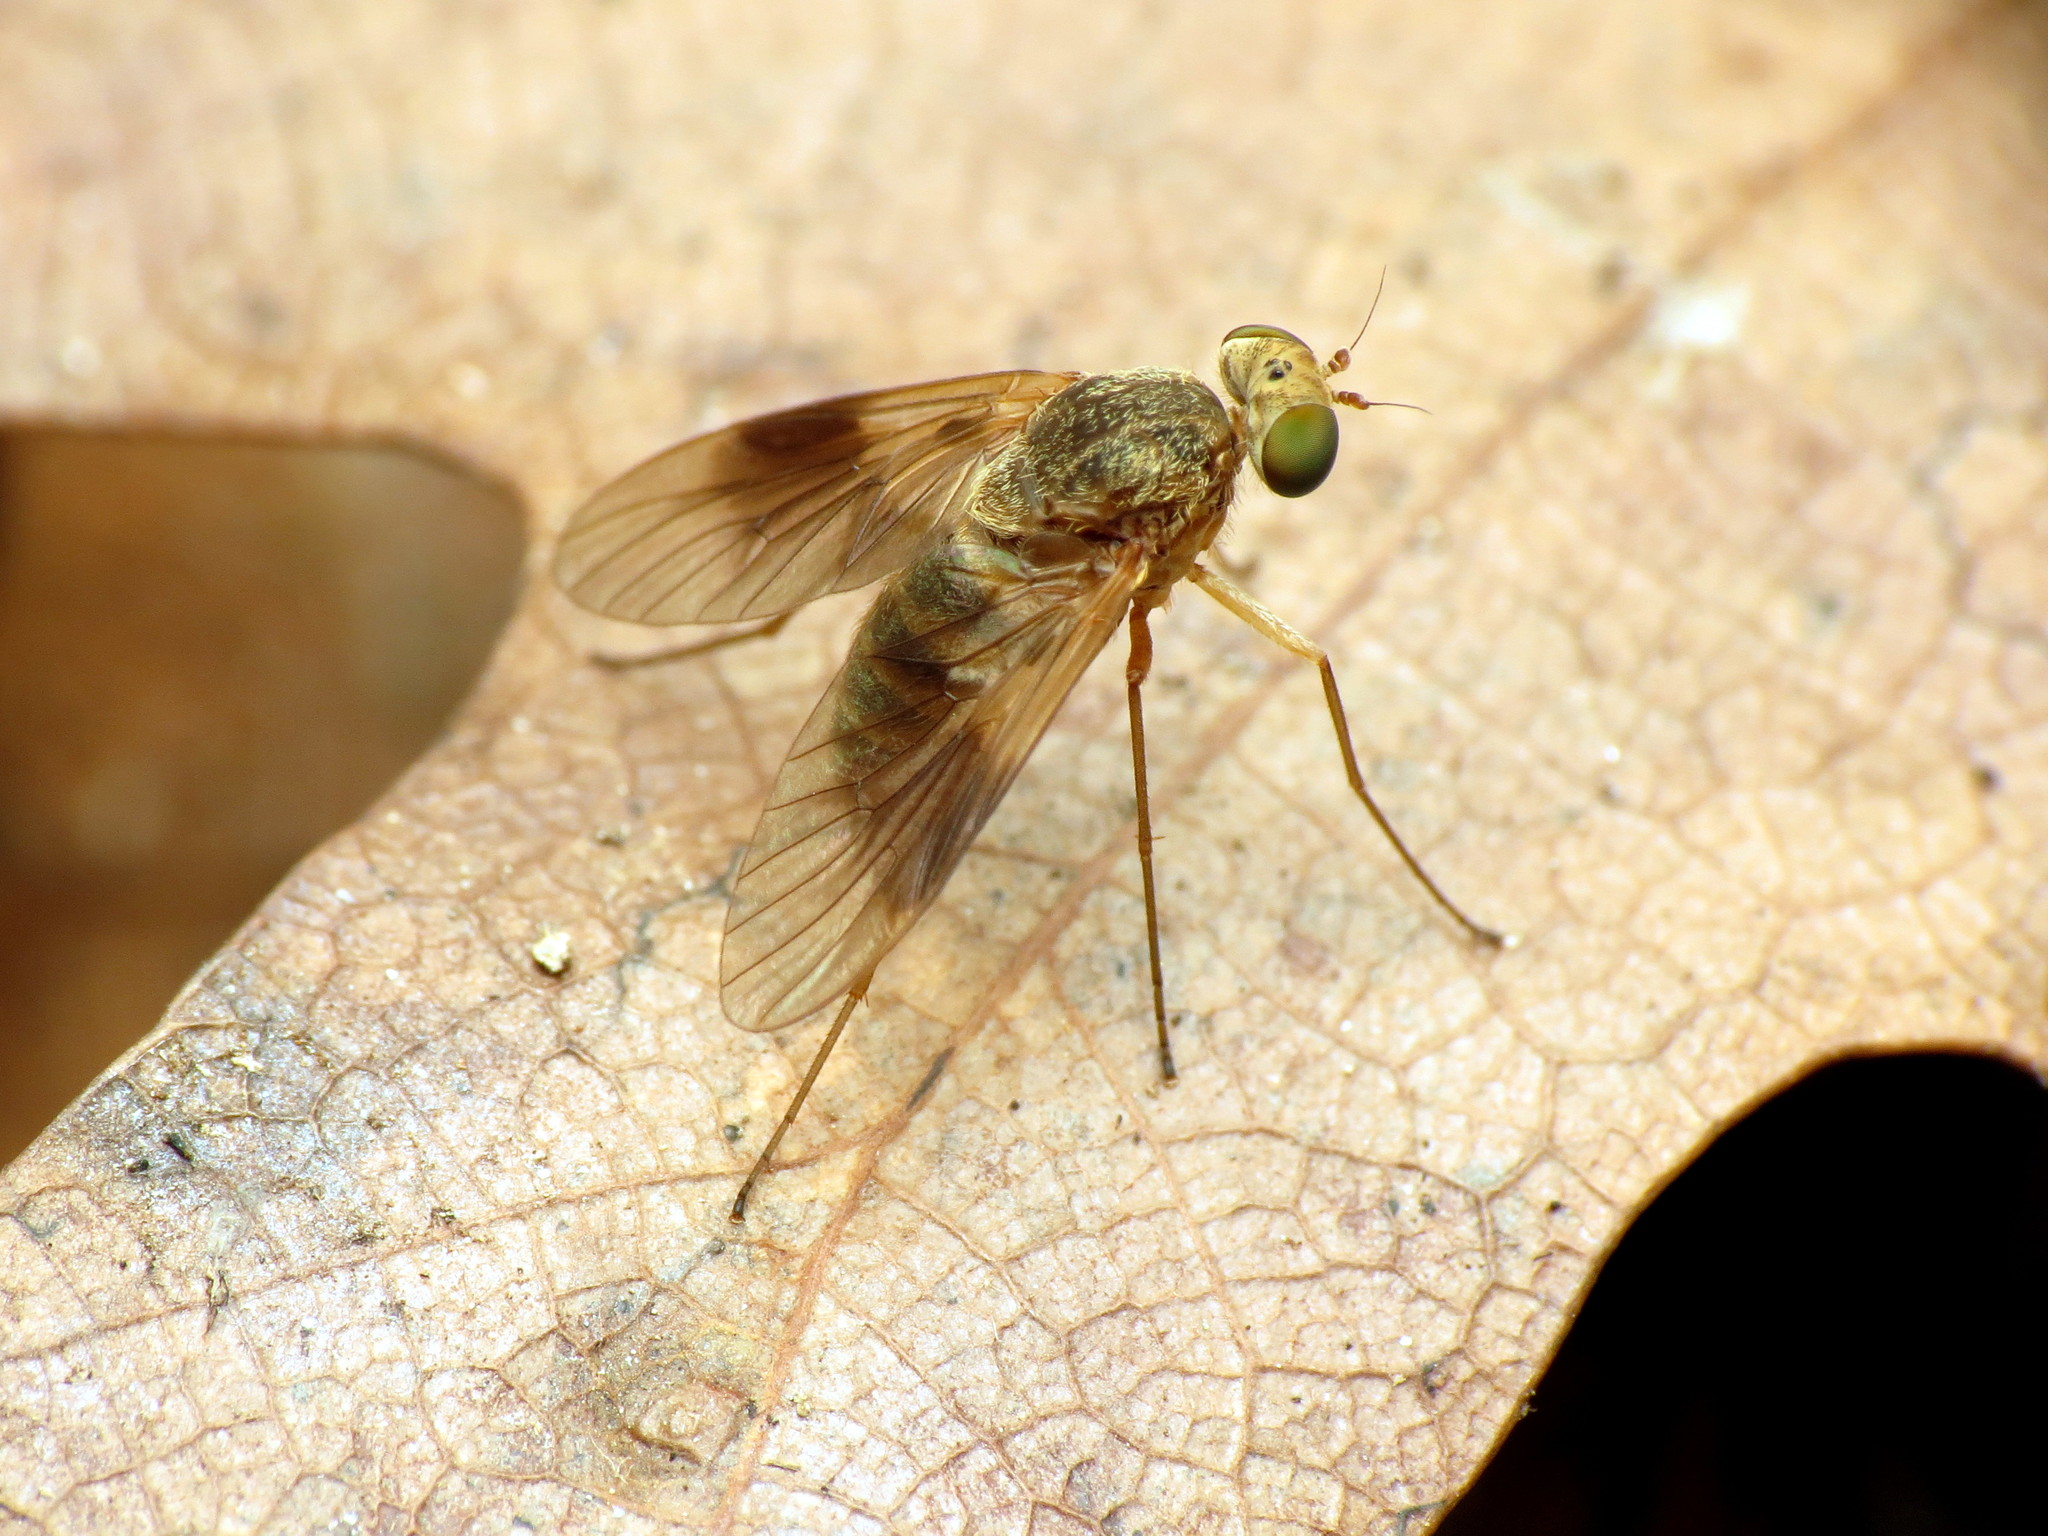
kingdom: Animalia
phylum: Arthropoda
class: Insecta
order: Diptera
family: Rhagionidae
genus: Chrysopilus
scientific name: Chrysopilus quadratus
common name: Quadrate snipe fly
